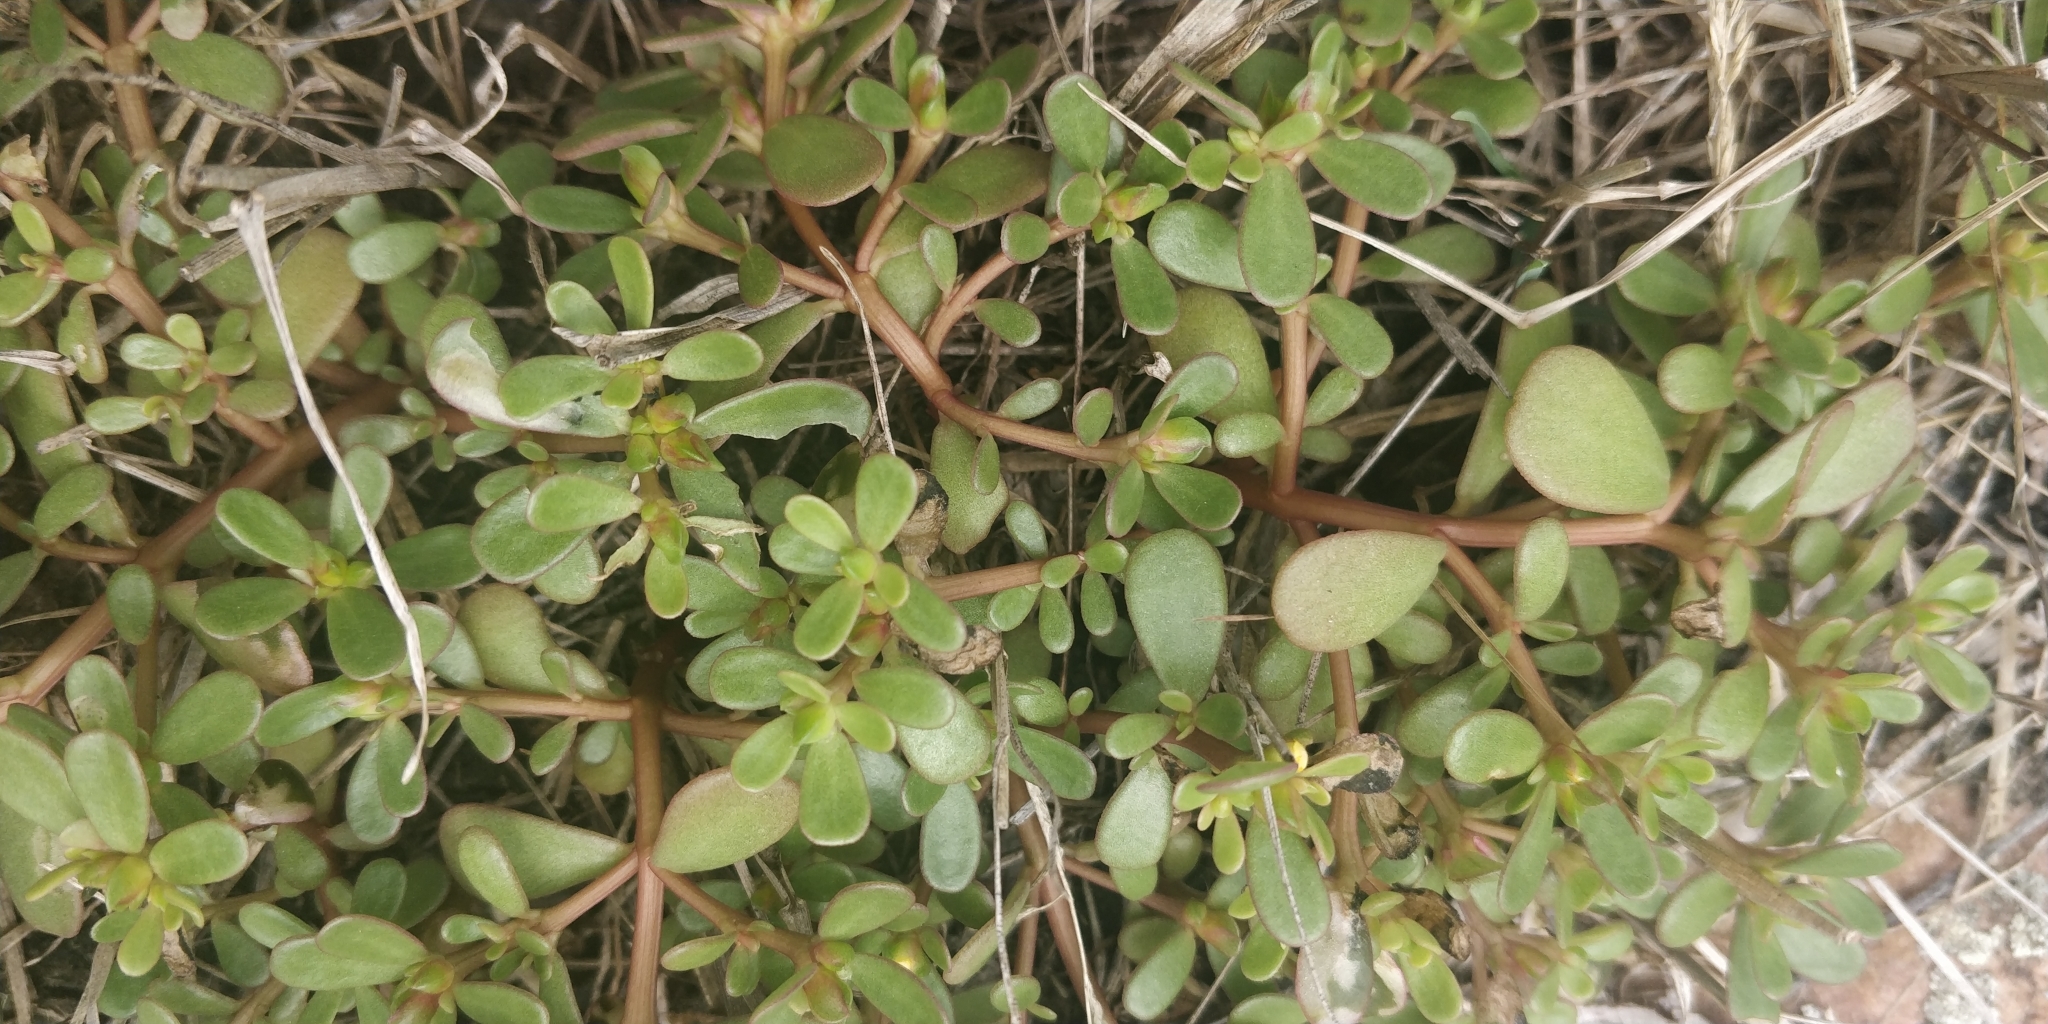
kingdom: Plantae
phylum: Tracheophyta
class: Magnoliopsida
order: Caryophyllales
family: Portulacaceae
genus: Portulaca
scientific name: Portulaca oleracea
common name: Common purslane
